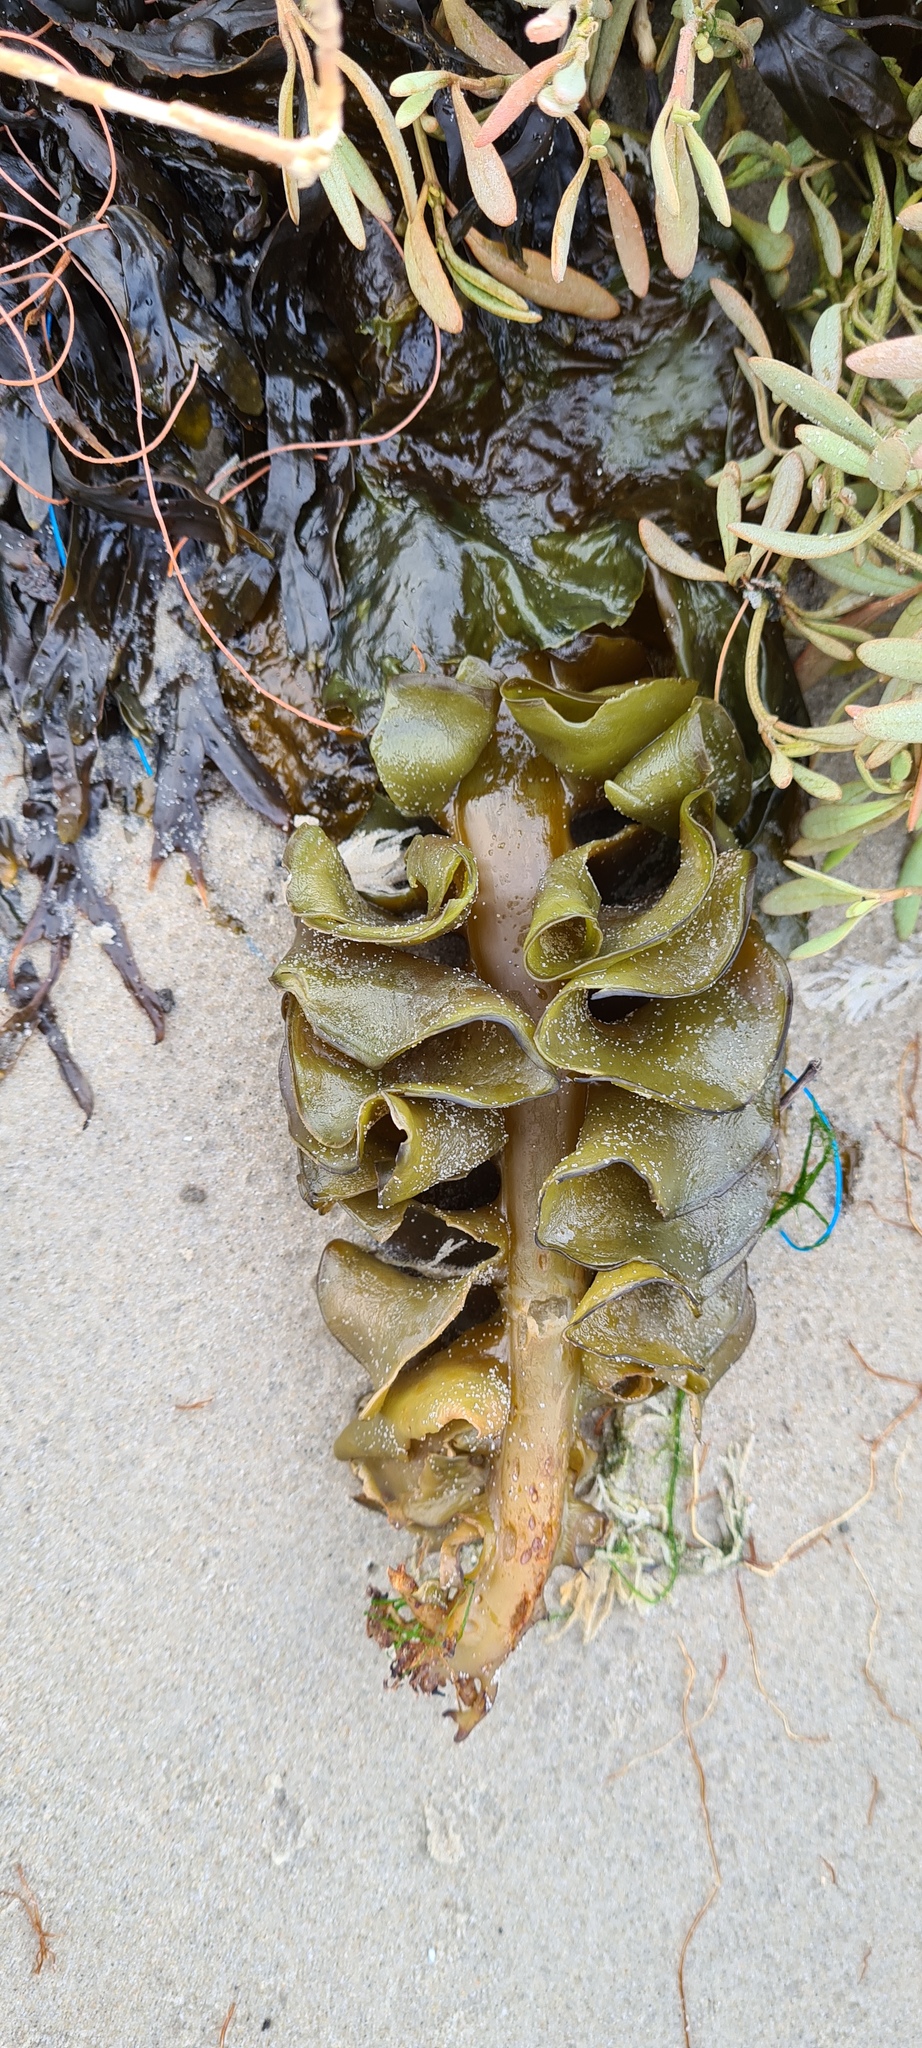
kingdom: Chromista
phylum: Ochrophyta
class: Phaeophyceae
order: Laminariales
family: Alariaceae
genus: Undaria
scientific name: Undaria pinnatifida
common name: Asian kelp
